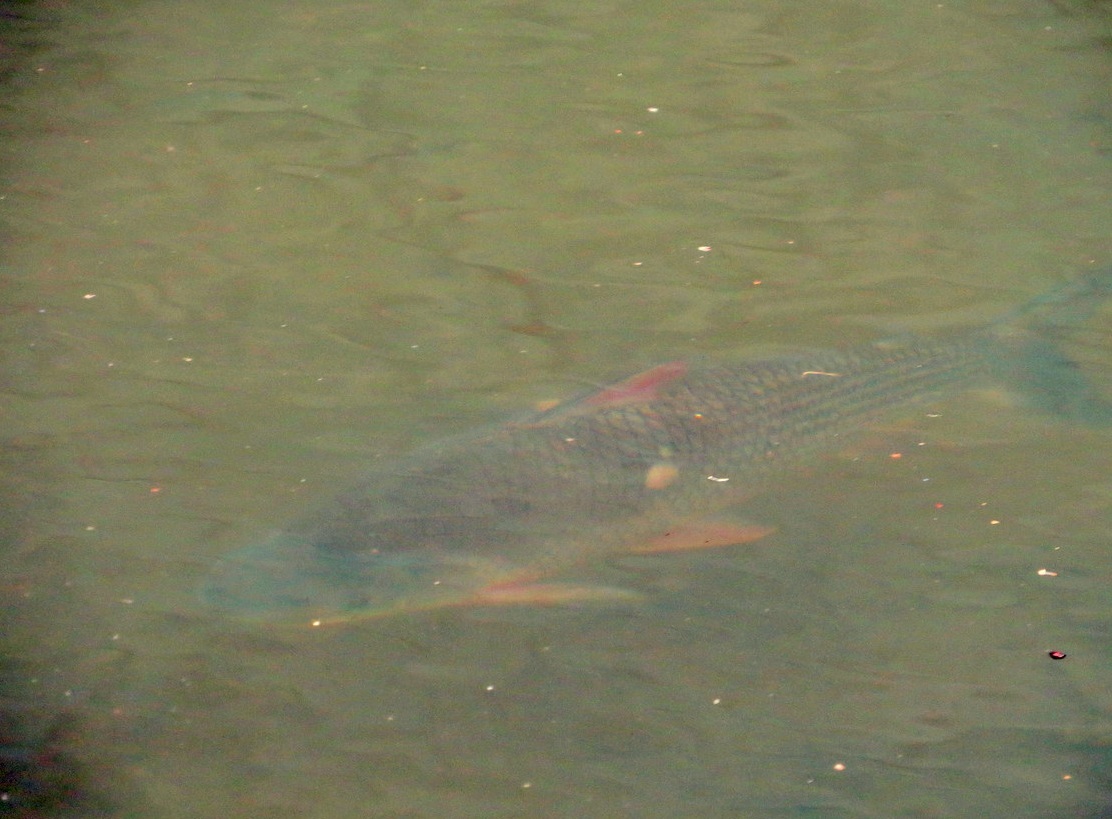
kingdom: Animalia
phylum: Chordata
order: Characiformes
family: Prochilodontidae
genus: Prochilodus
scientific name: Prochilodus lineatus
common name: Curimbata
